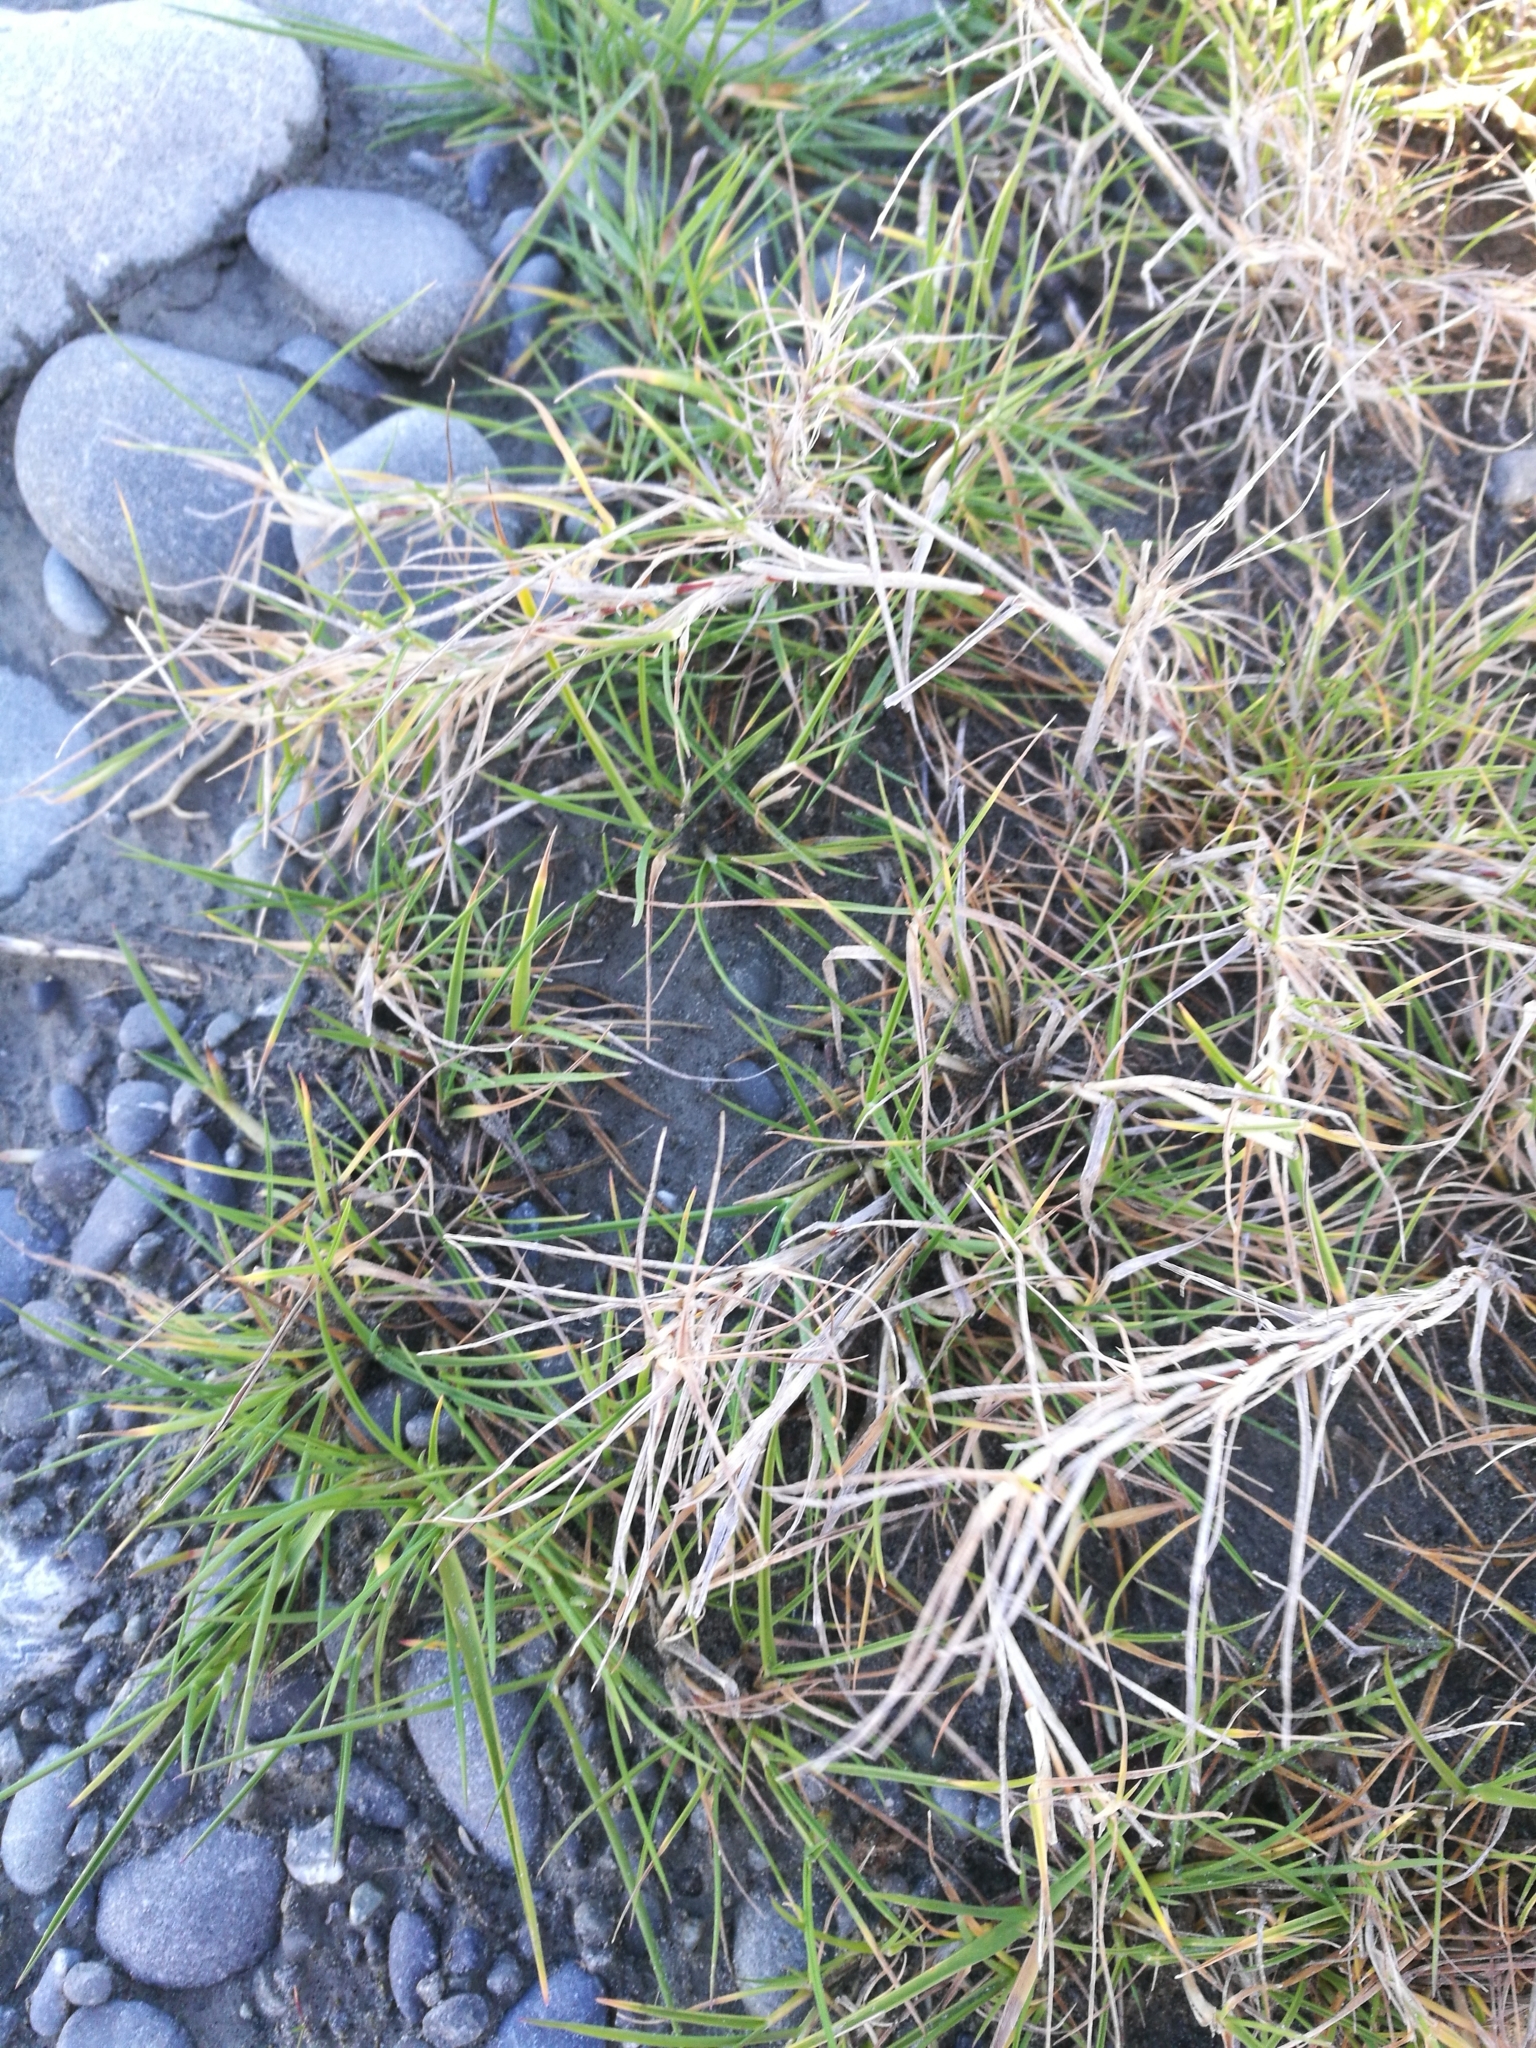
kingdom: Plantae
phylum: Tracheophyta
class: Liliopsida
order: Poales
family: Poaceae
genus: Cenchrus
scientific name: Cenchrus clandestinus
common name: Kikuyugrass
